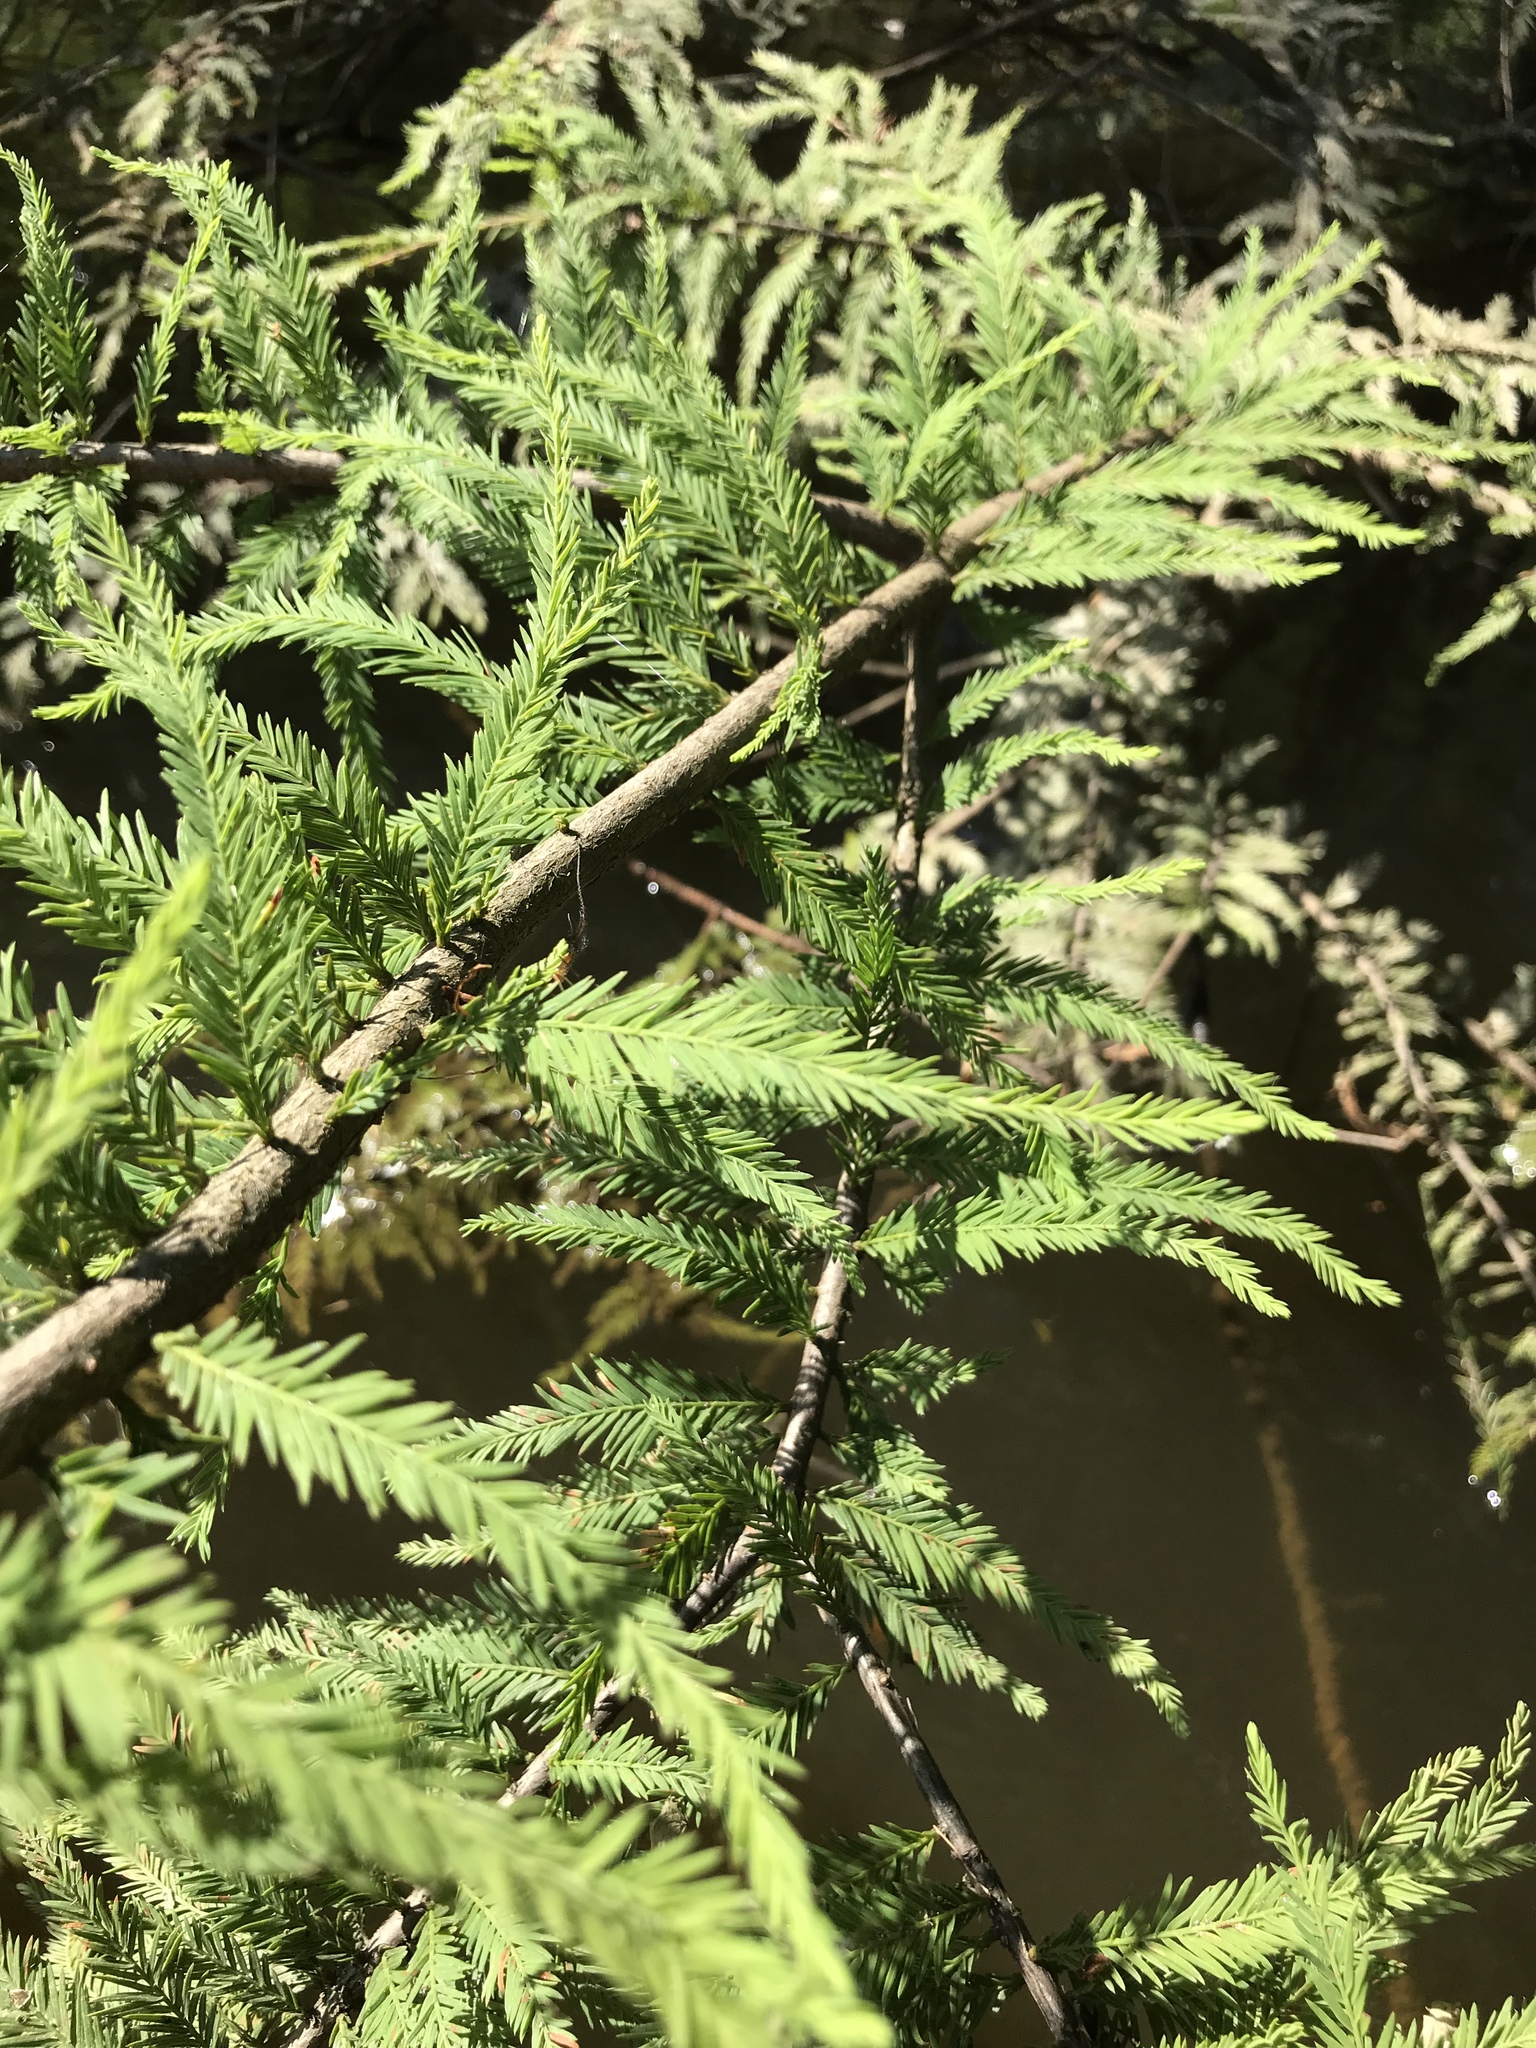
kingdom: Plantae
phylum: Tracheophyta
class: Pinopsida
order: Pinales
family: Cupressaceae
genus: Taxodium
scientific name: Taxodium distichum
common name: Bald cypress
